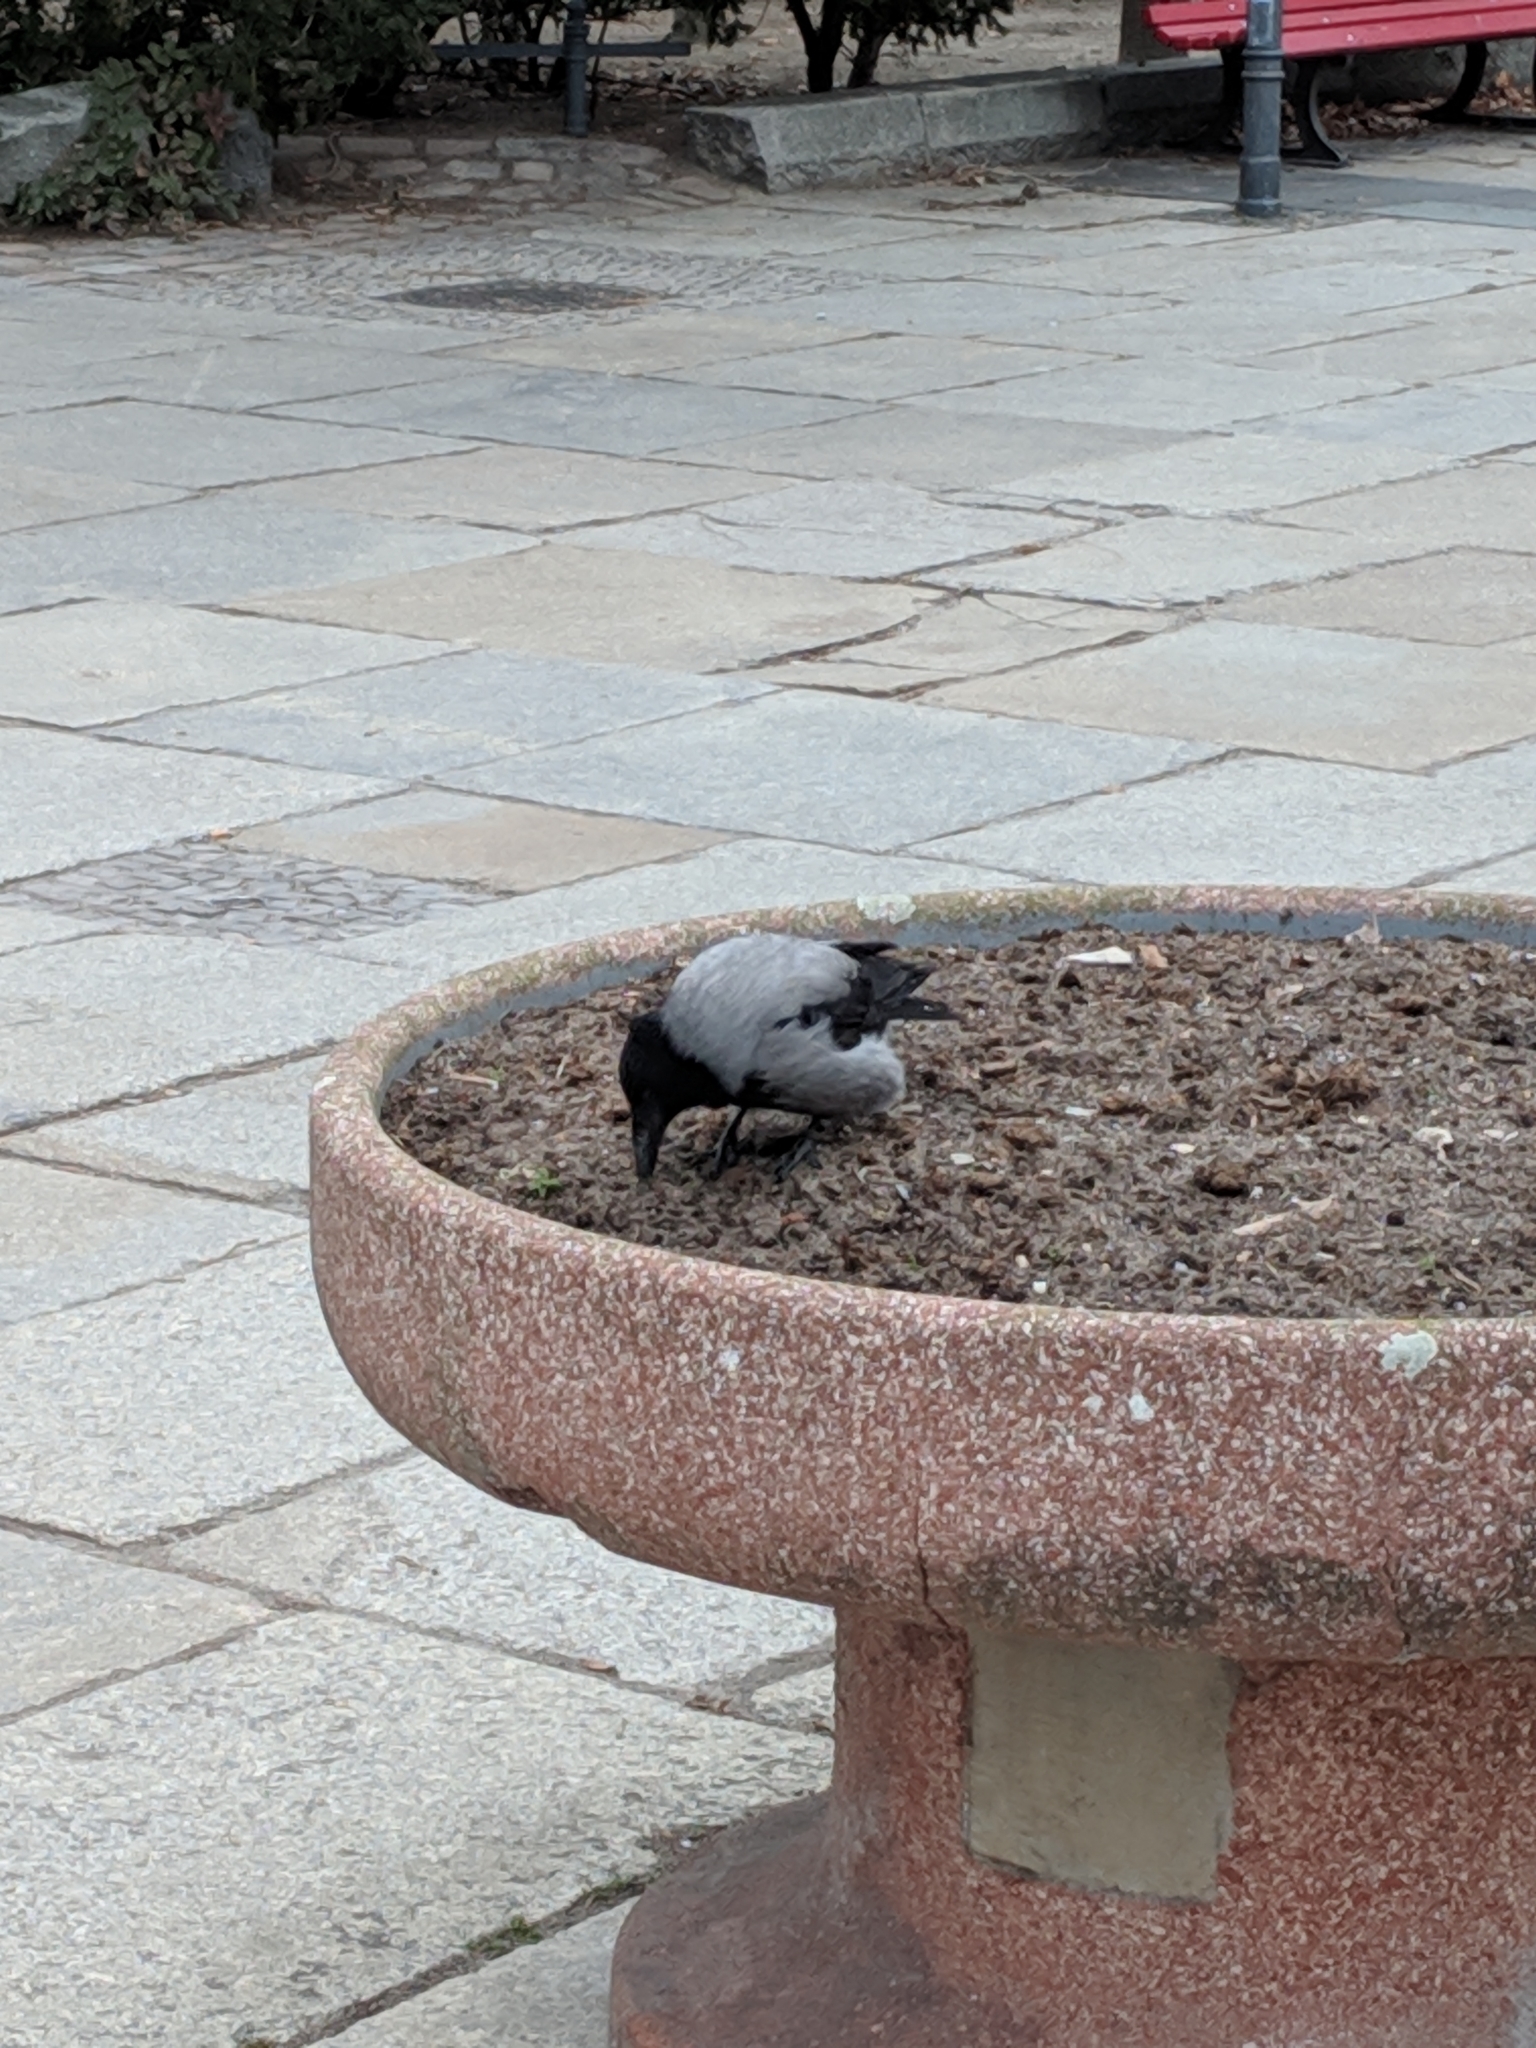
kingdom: Animalia
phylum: Chordata
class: Aves
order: Passeriformes
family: Corvidae
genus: Corvus
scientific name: Corvus cornix
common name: Hooded crow
